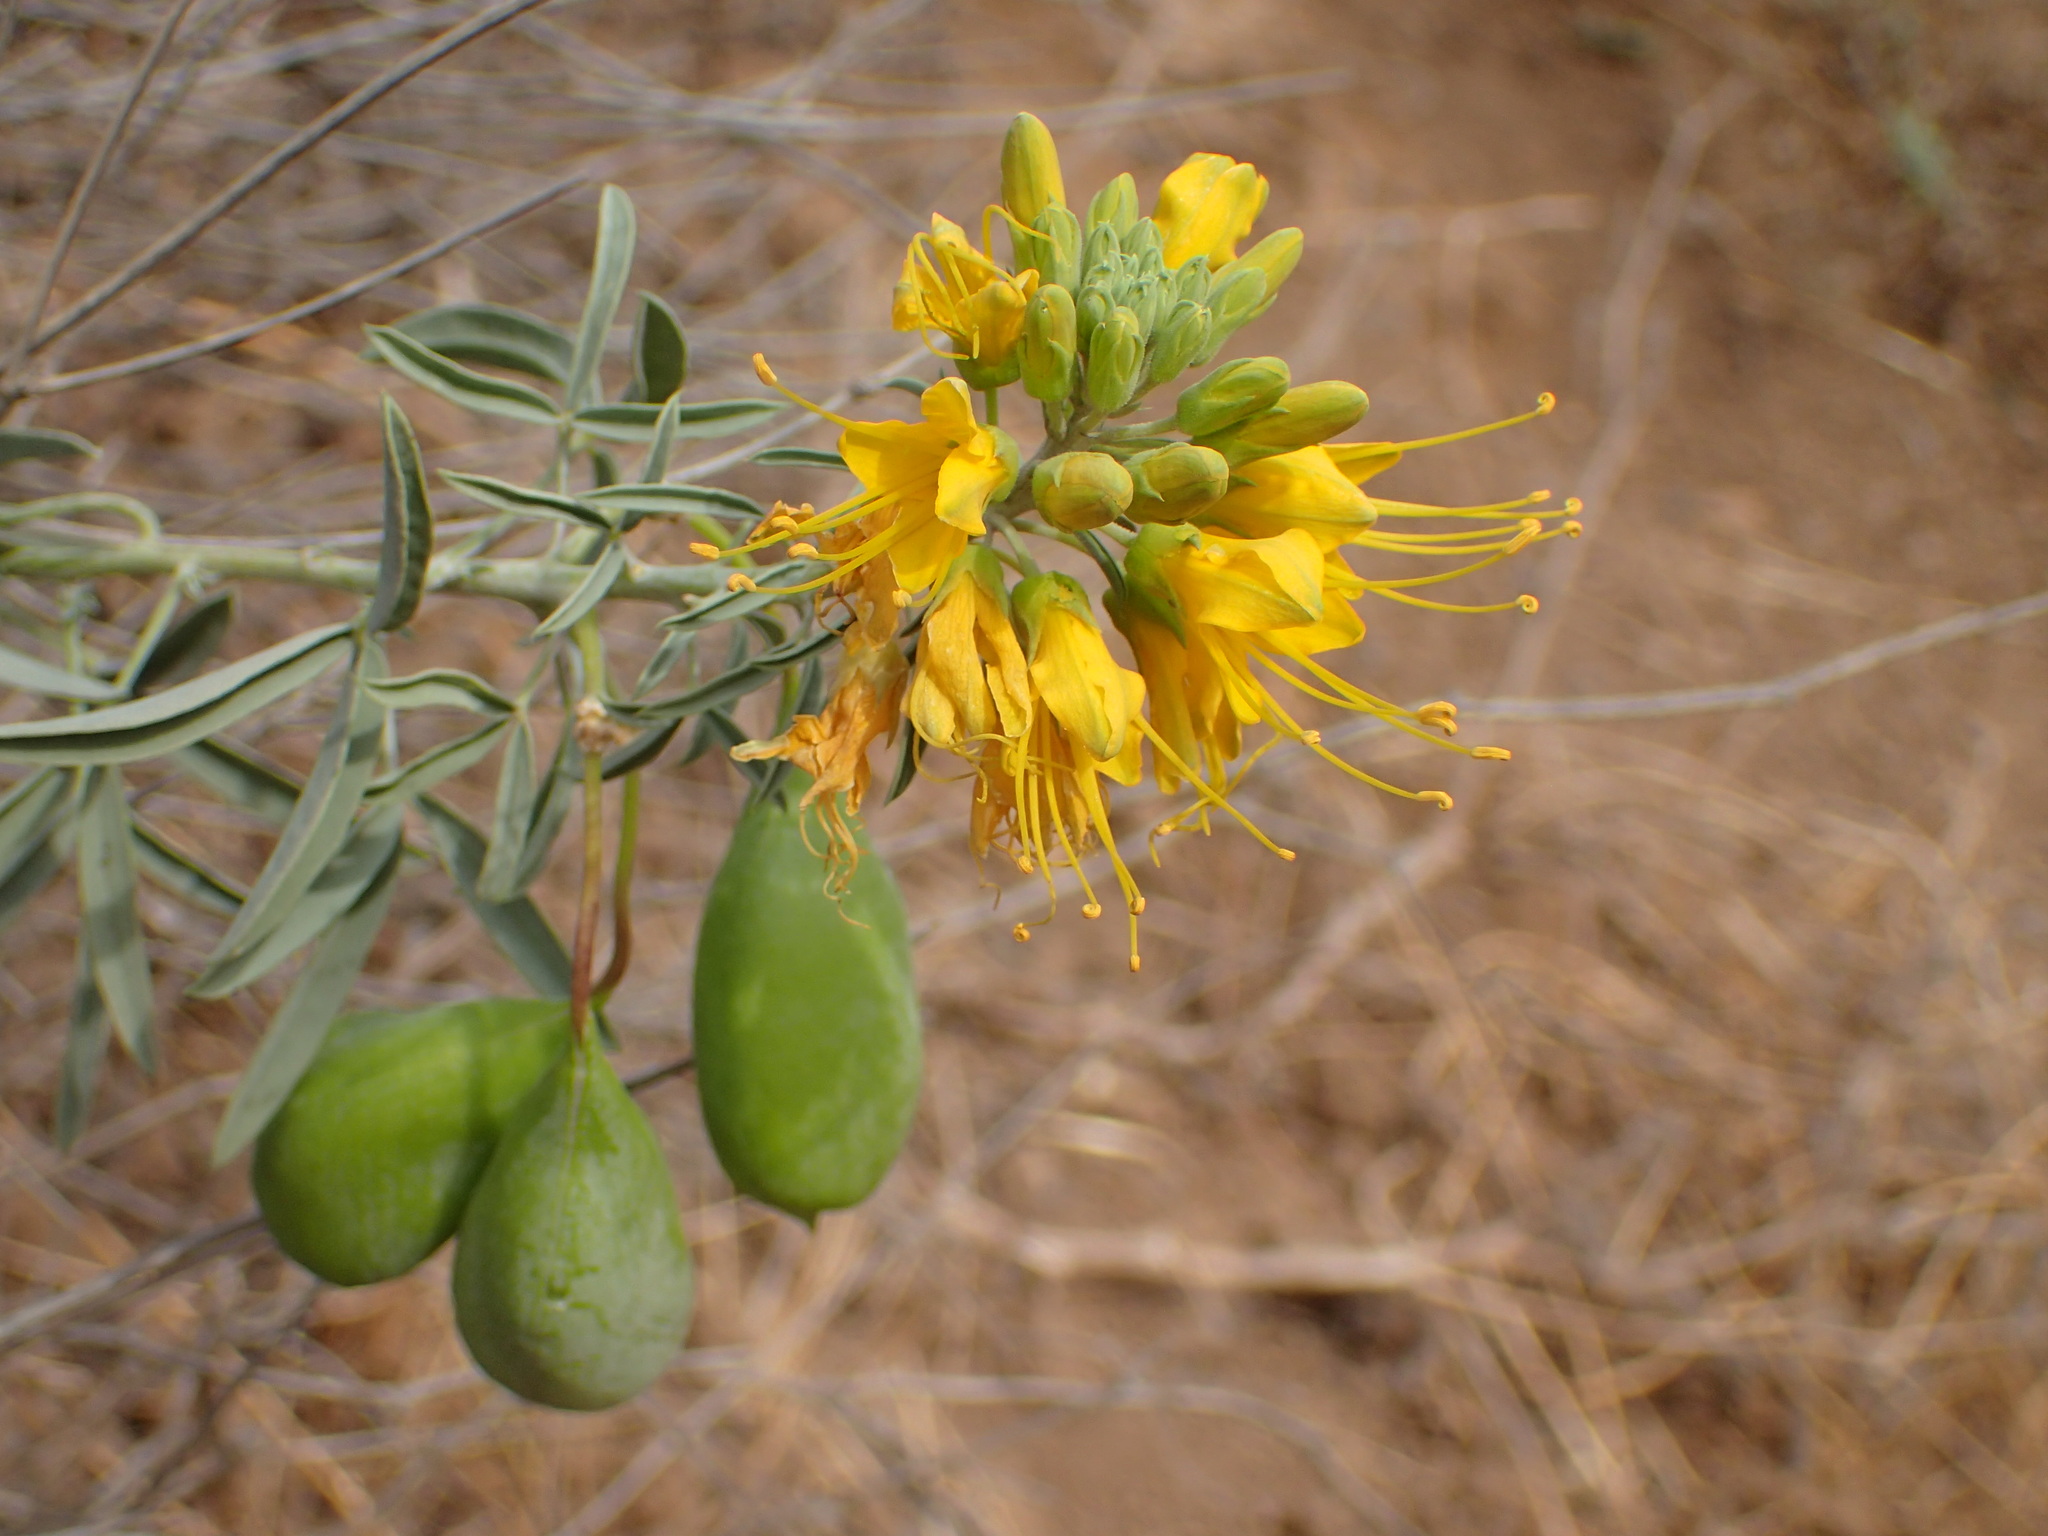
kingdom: Plantae
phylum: Tracheophyta
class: Magnoliopsida
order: Brassicales
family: Cleomaceae
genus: Cleomella
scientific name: Cleomella arborea
